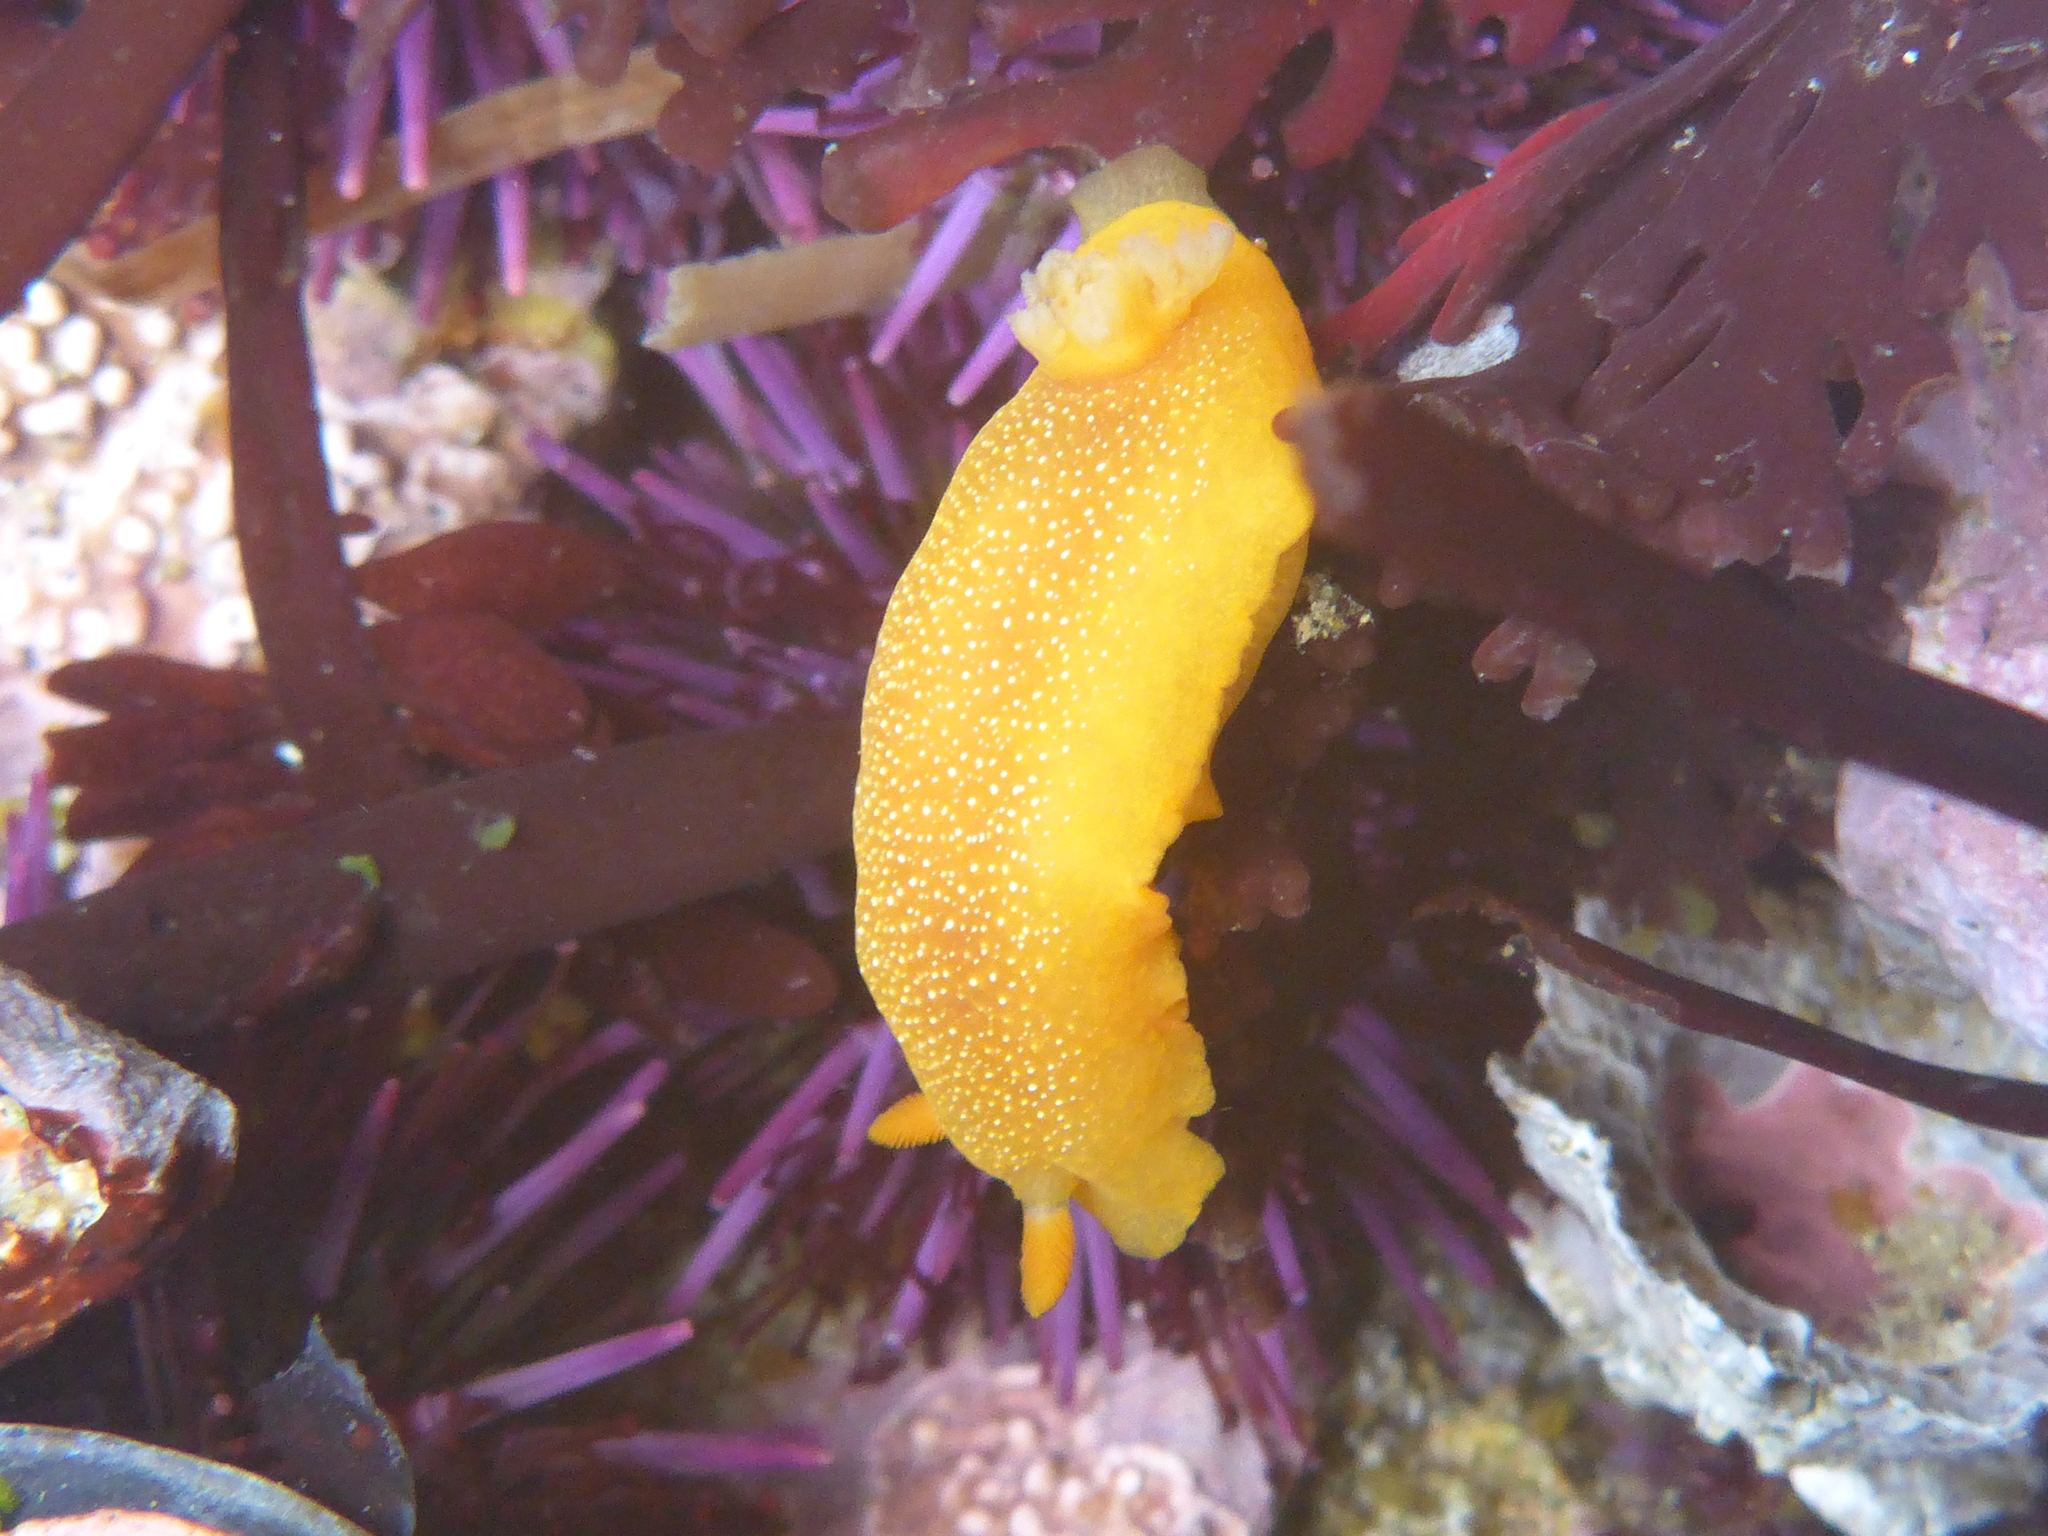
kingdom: Animalia
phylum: Mollusca
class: Gastropoda
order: Nudibranchia
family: Dendrodorididae
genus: Doriopsilla
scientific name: Doriopsilla fulva
